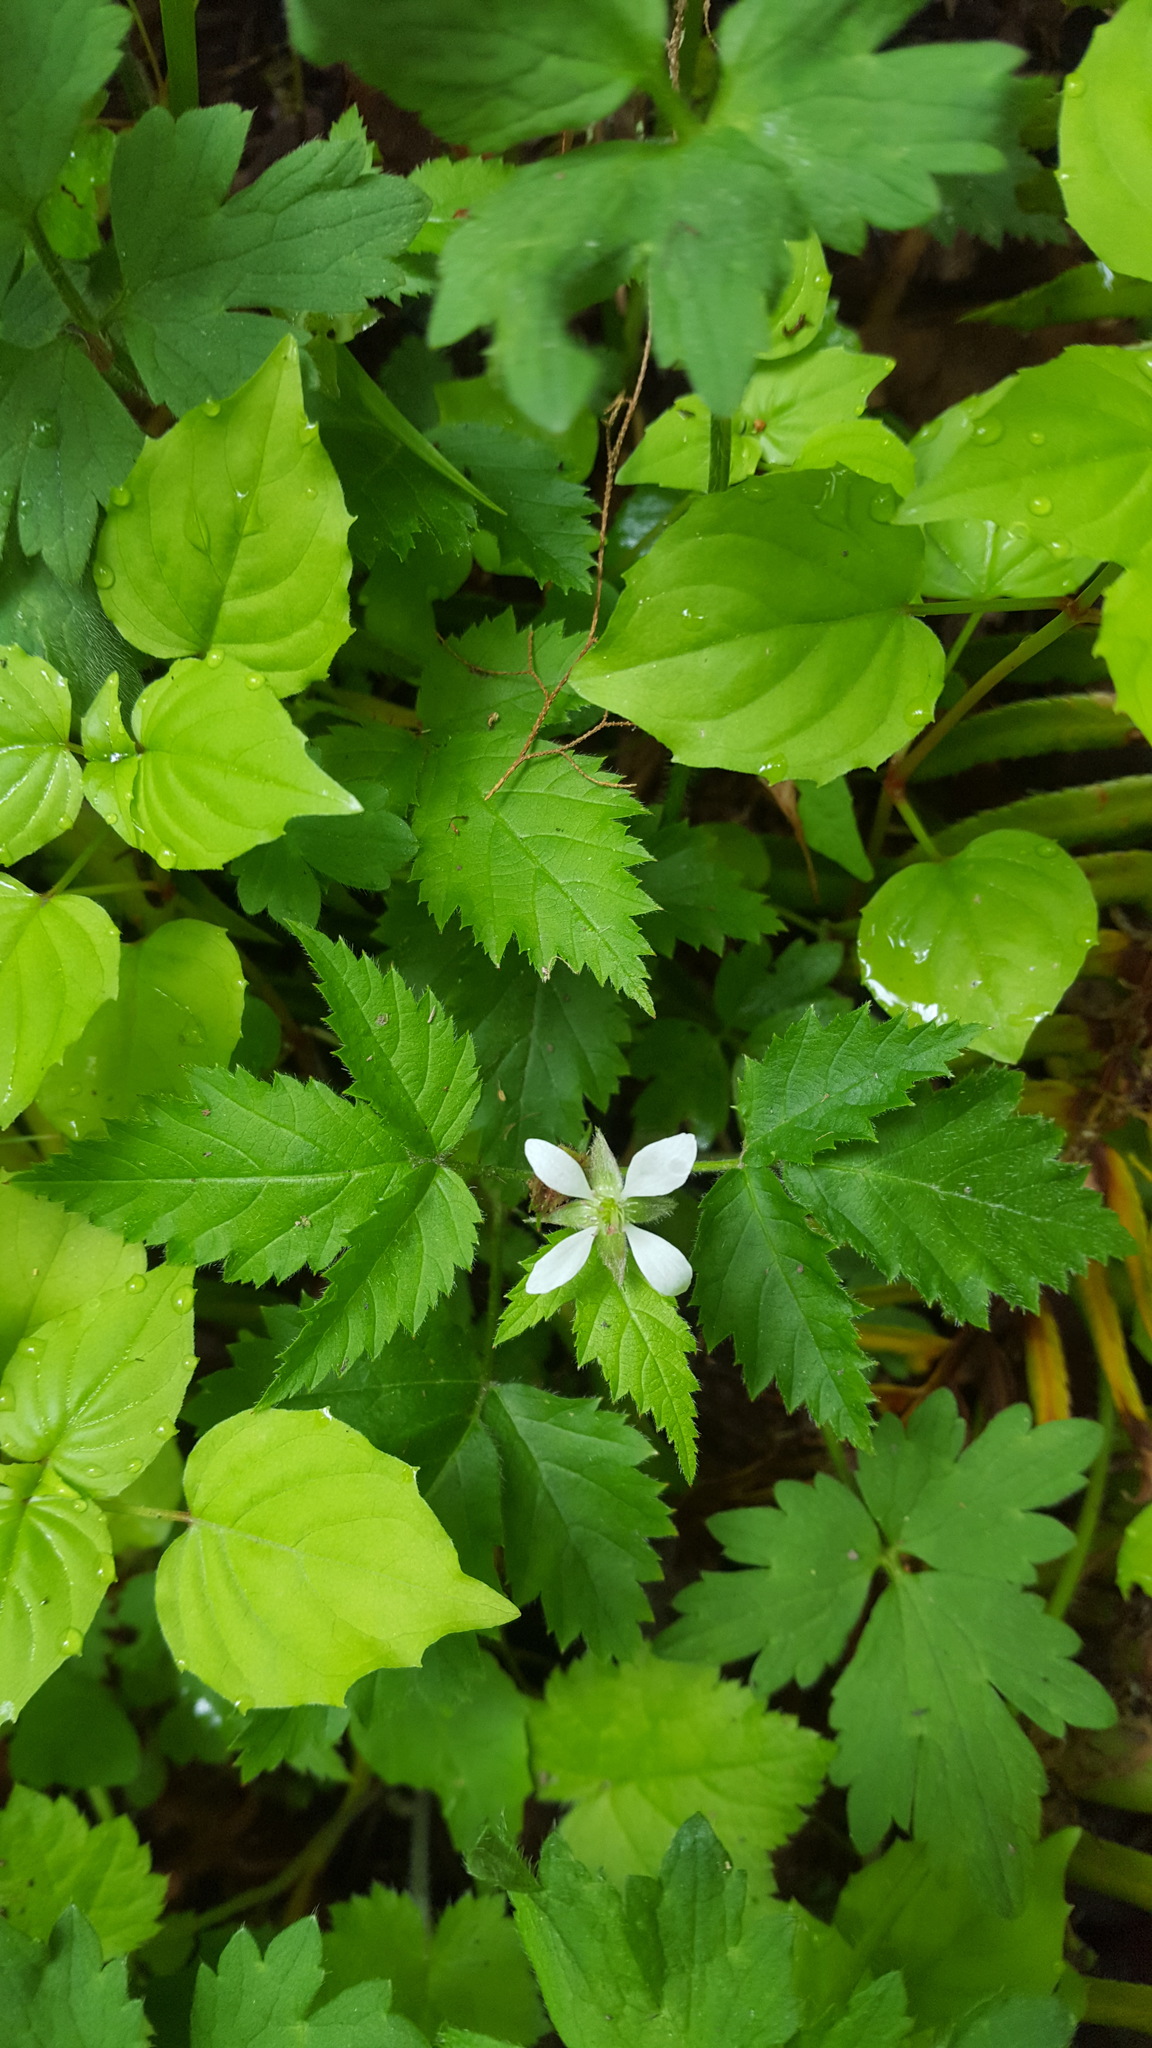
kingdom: Plantae
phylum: Tracheophyta
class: Magnoliopsida
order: Rosales
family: Rosaceae
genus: Rubus
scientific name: Rubus ursinus
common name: Pacific blackberry
